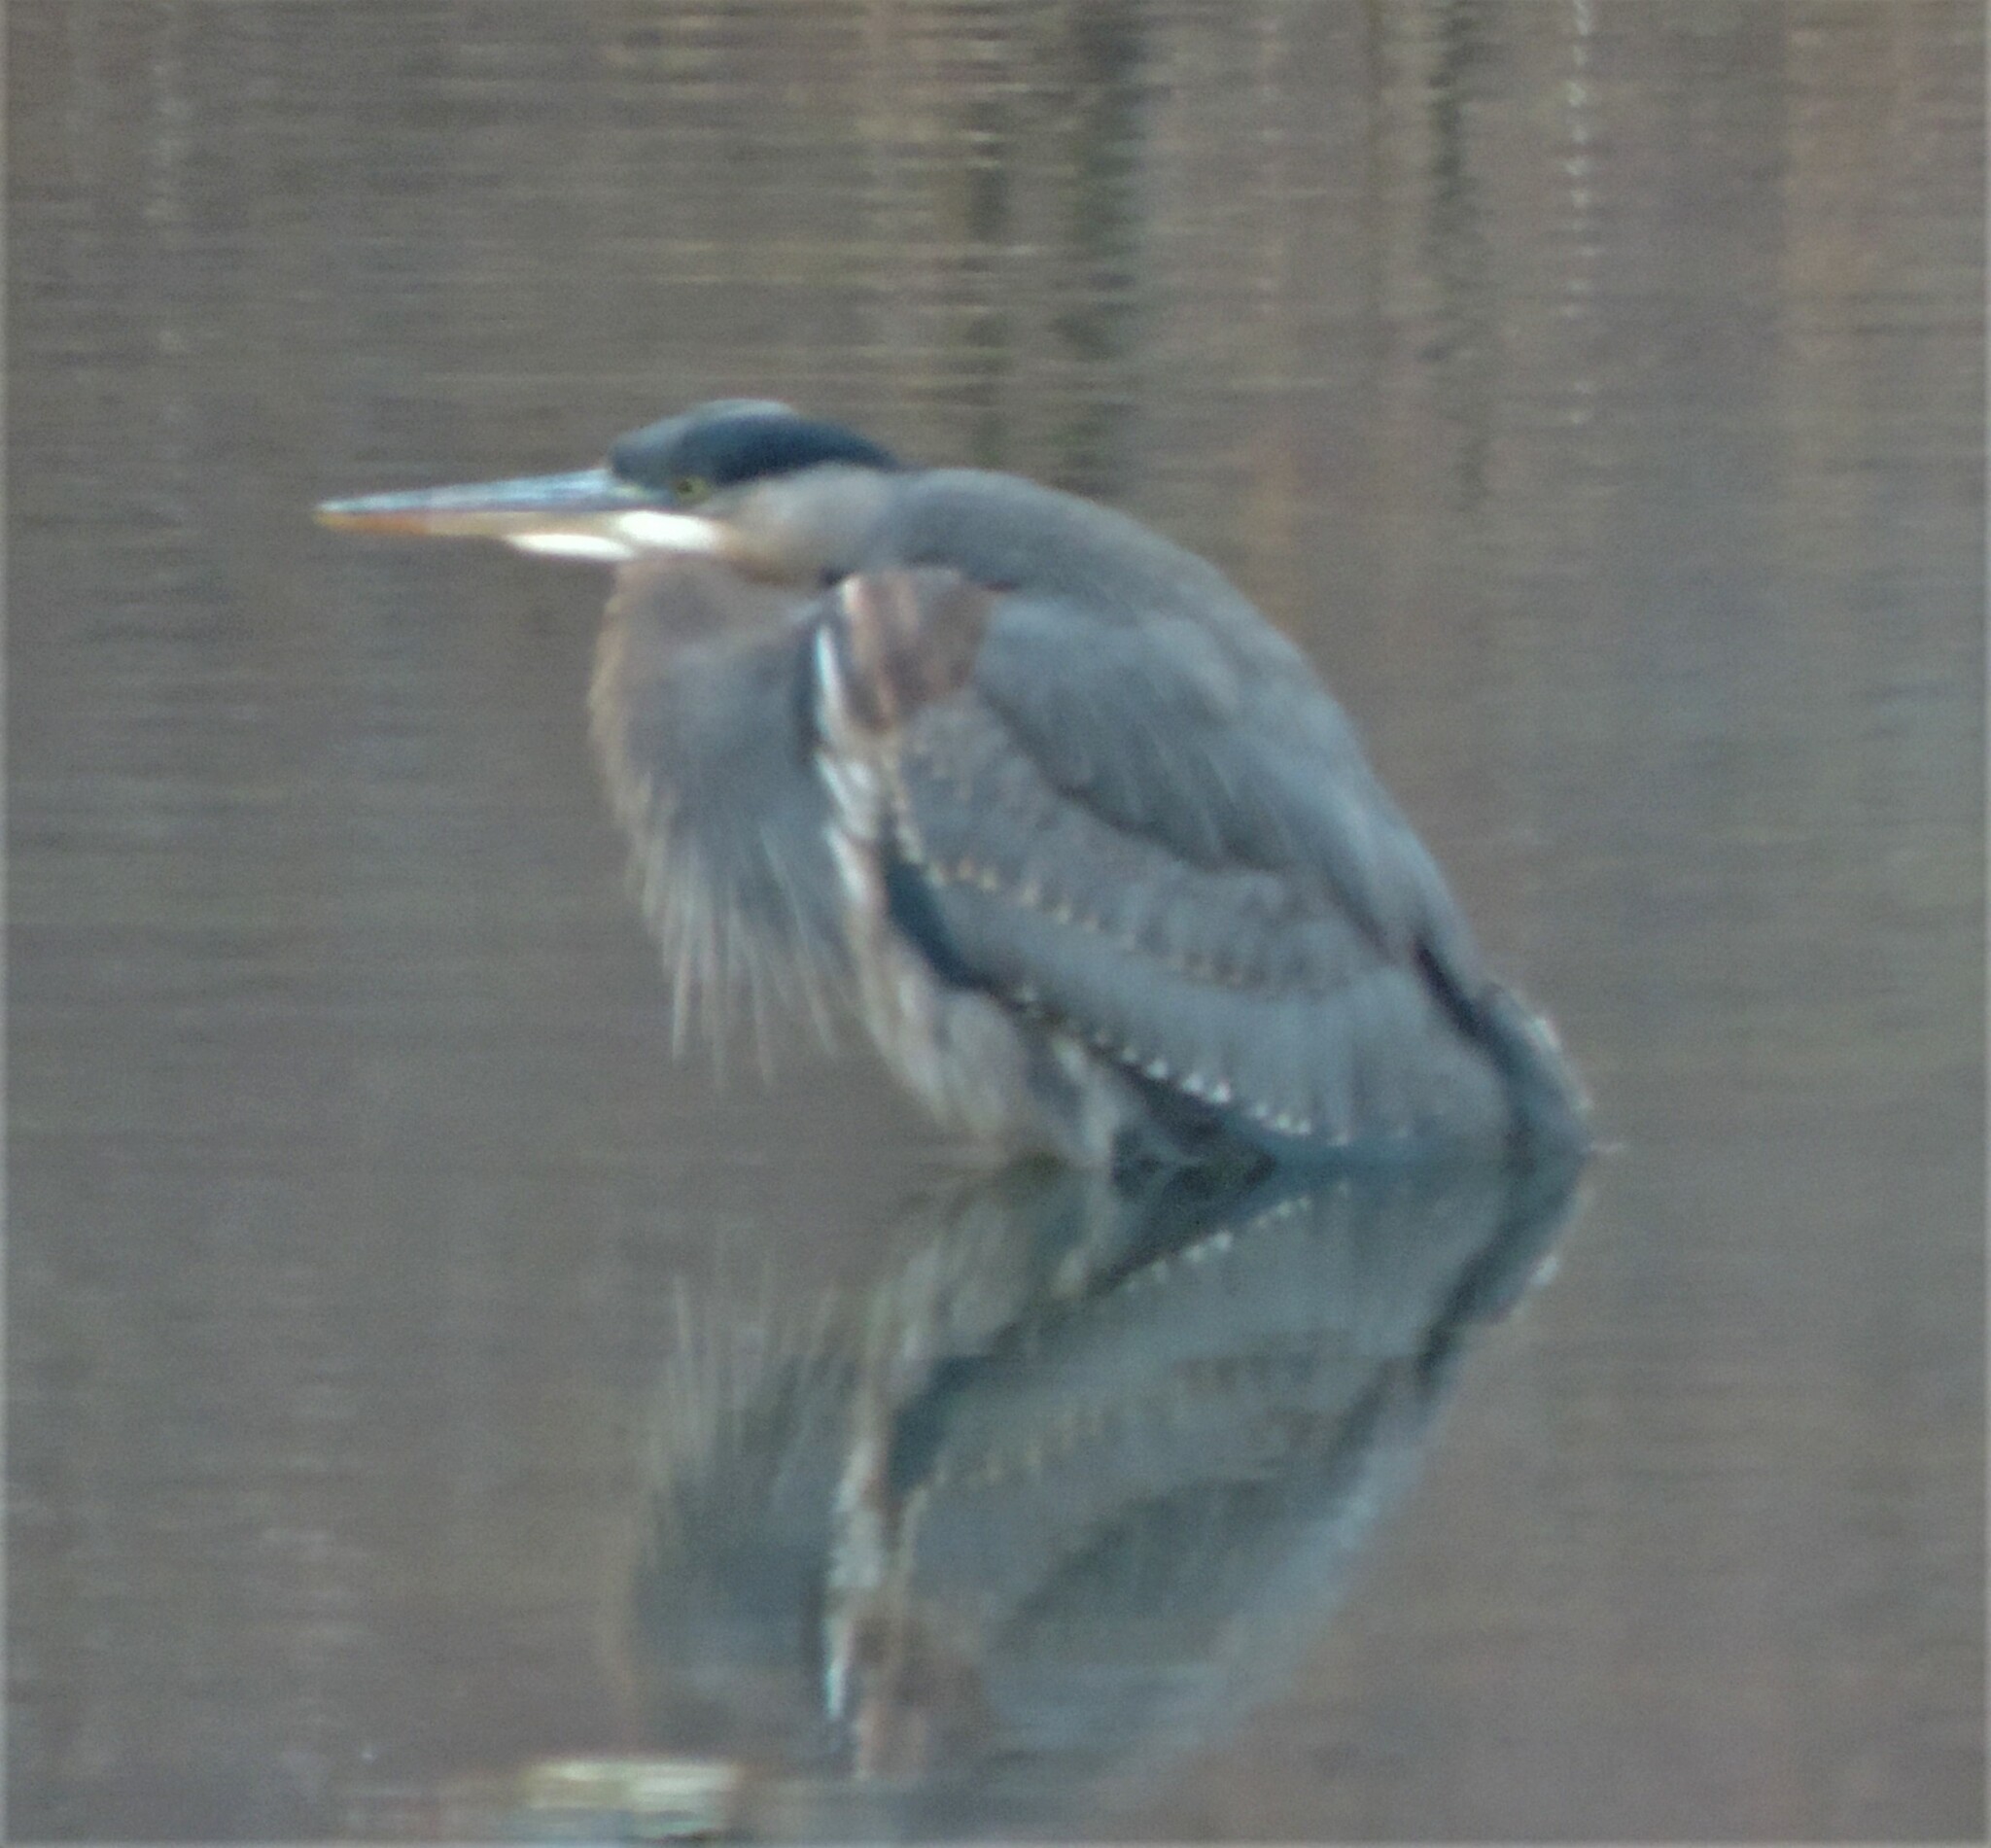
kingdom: Animalia
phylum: Chordata
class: Aves
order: Pelecaniformes
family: Ardeidae
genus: Ardea
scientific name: Ardea herodias
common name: Great blue heron
